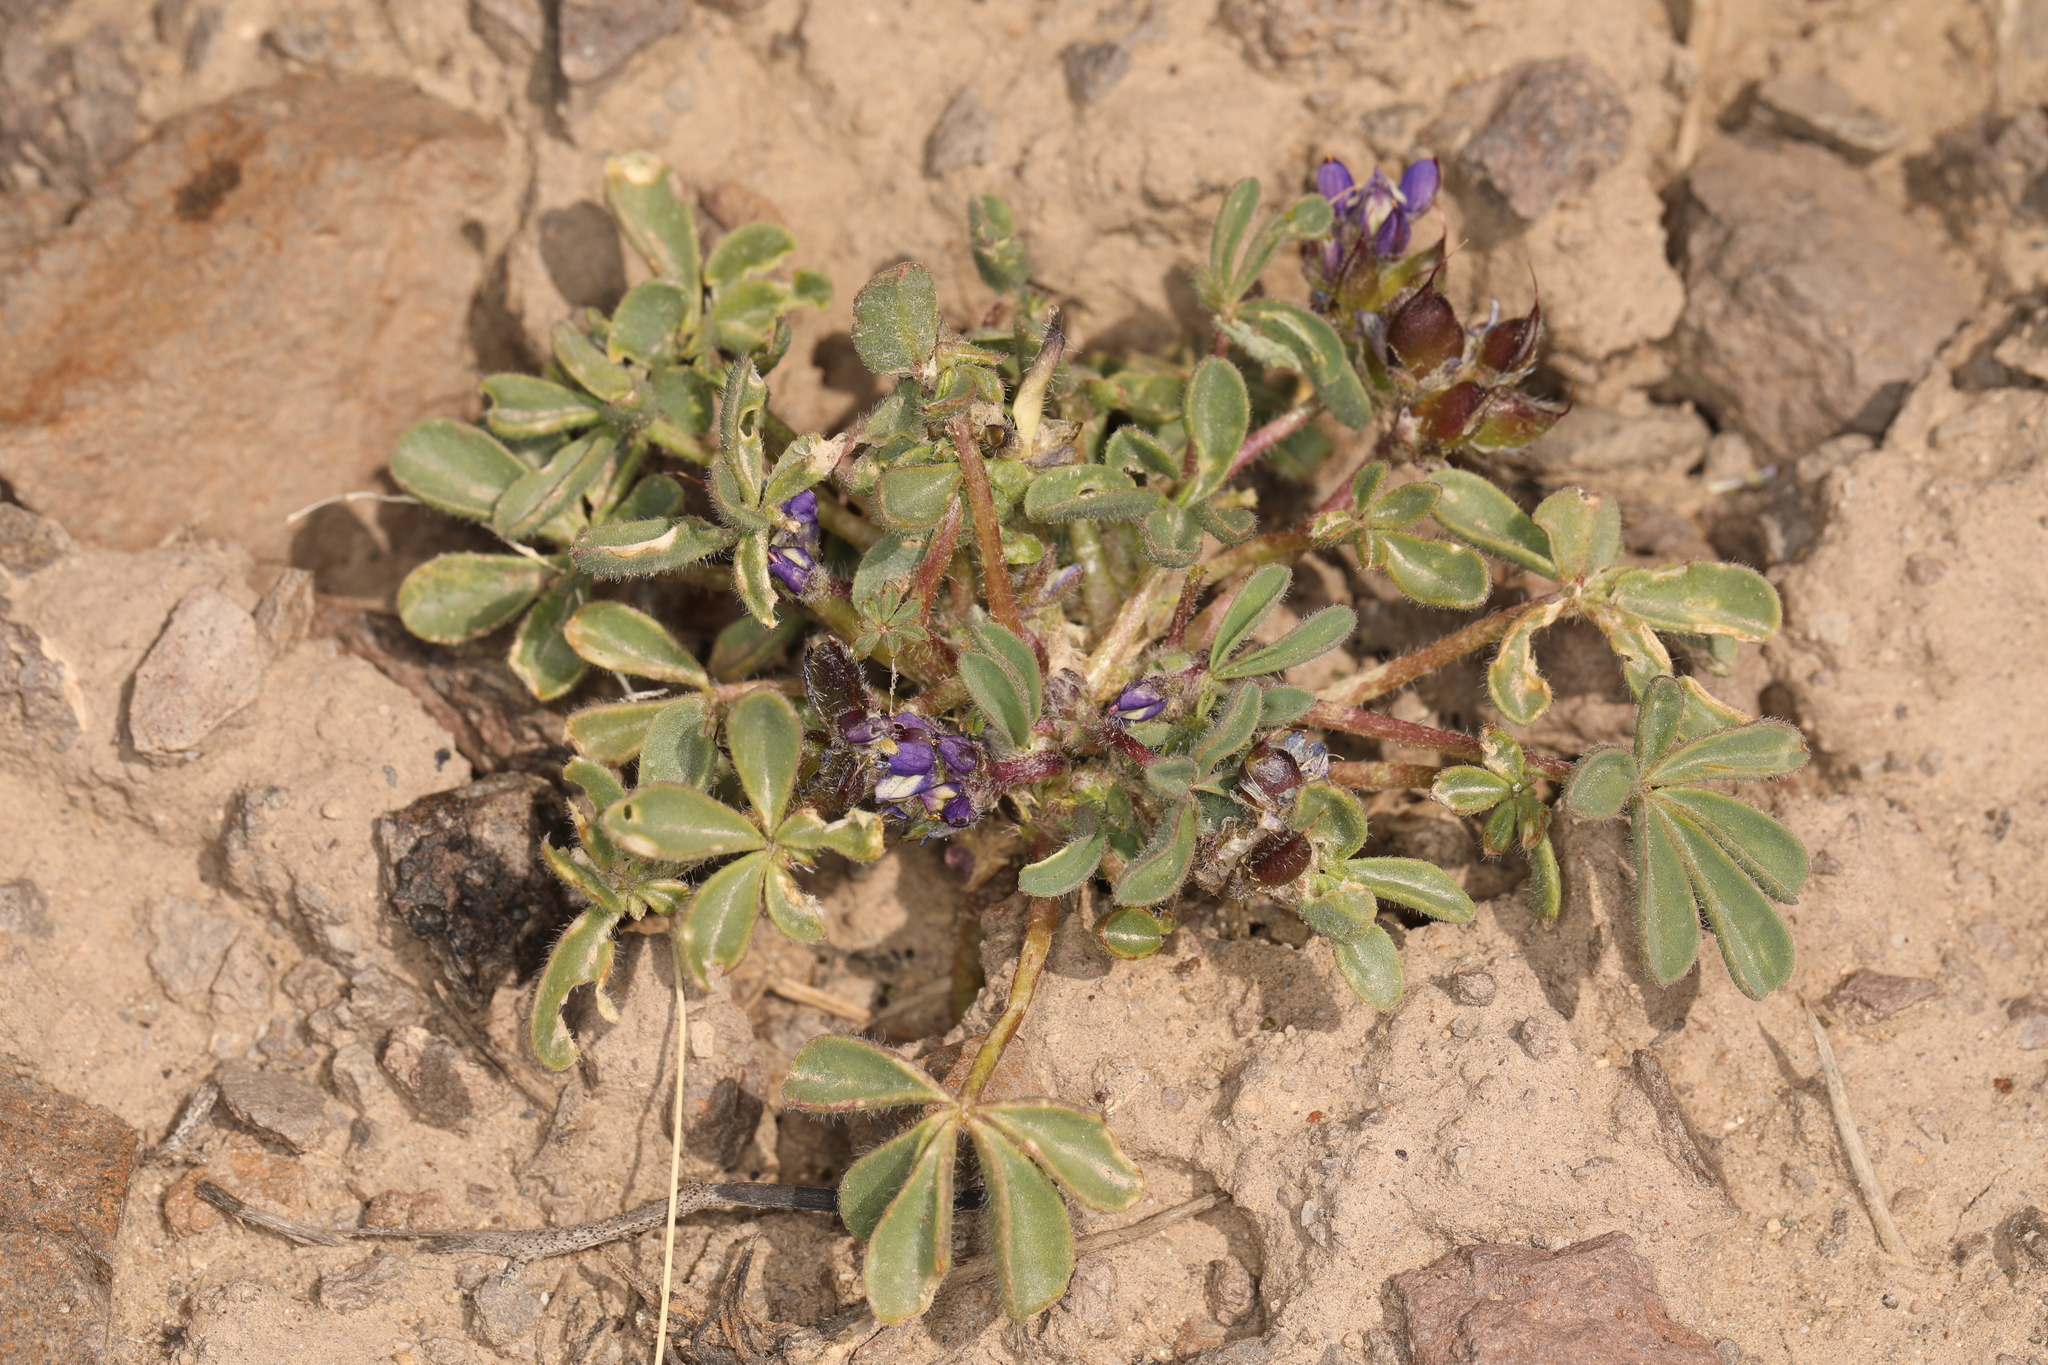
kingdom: Plantae
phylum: Tracheophyta
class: Magnoliopsida
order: Fabales
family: Fabaceae
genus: Lupinus
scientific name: Lupinus brevicaulis
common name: Sand lupine
